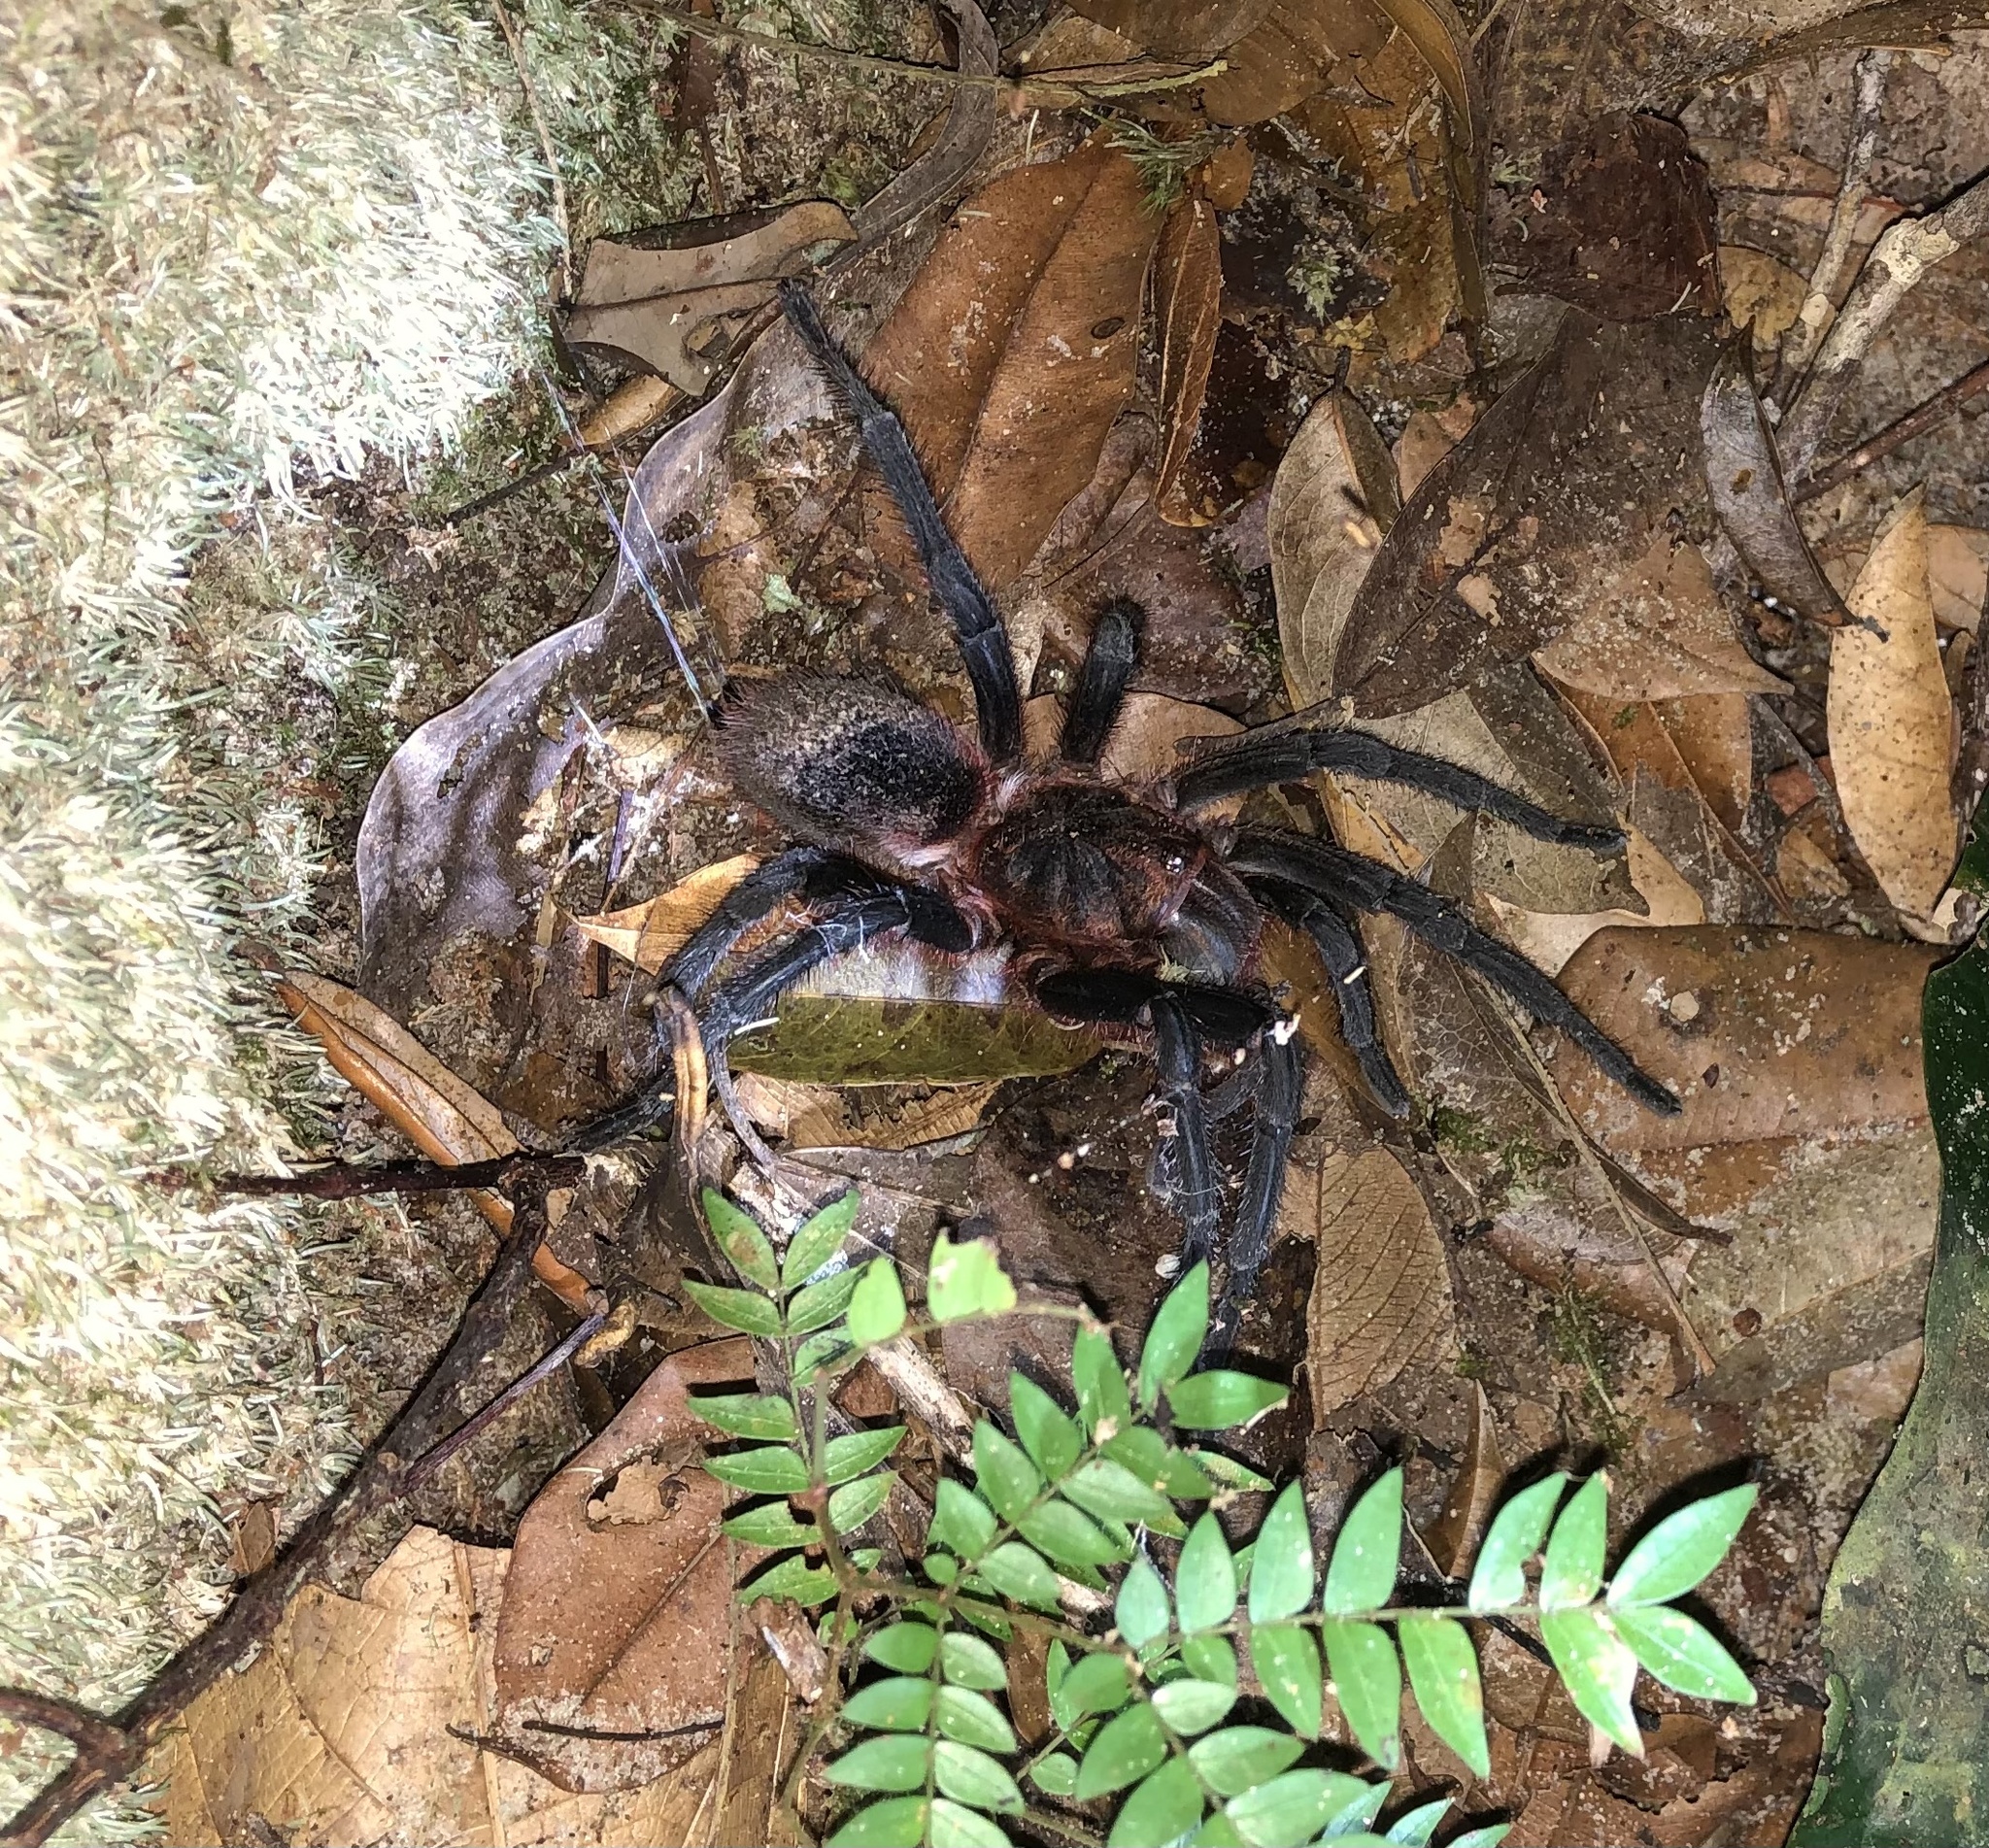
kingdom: Animalia
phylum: Arthropoda
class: Arachnida
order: Araneae
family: Theraphosidae
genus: Bumba
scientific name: Bumba horrida
